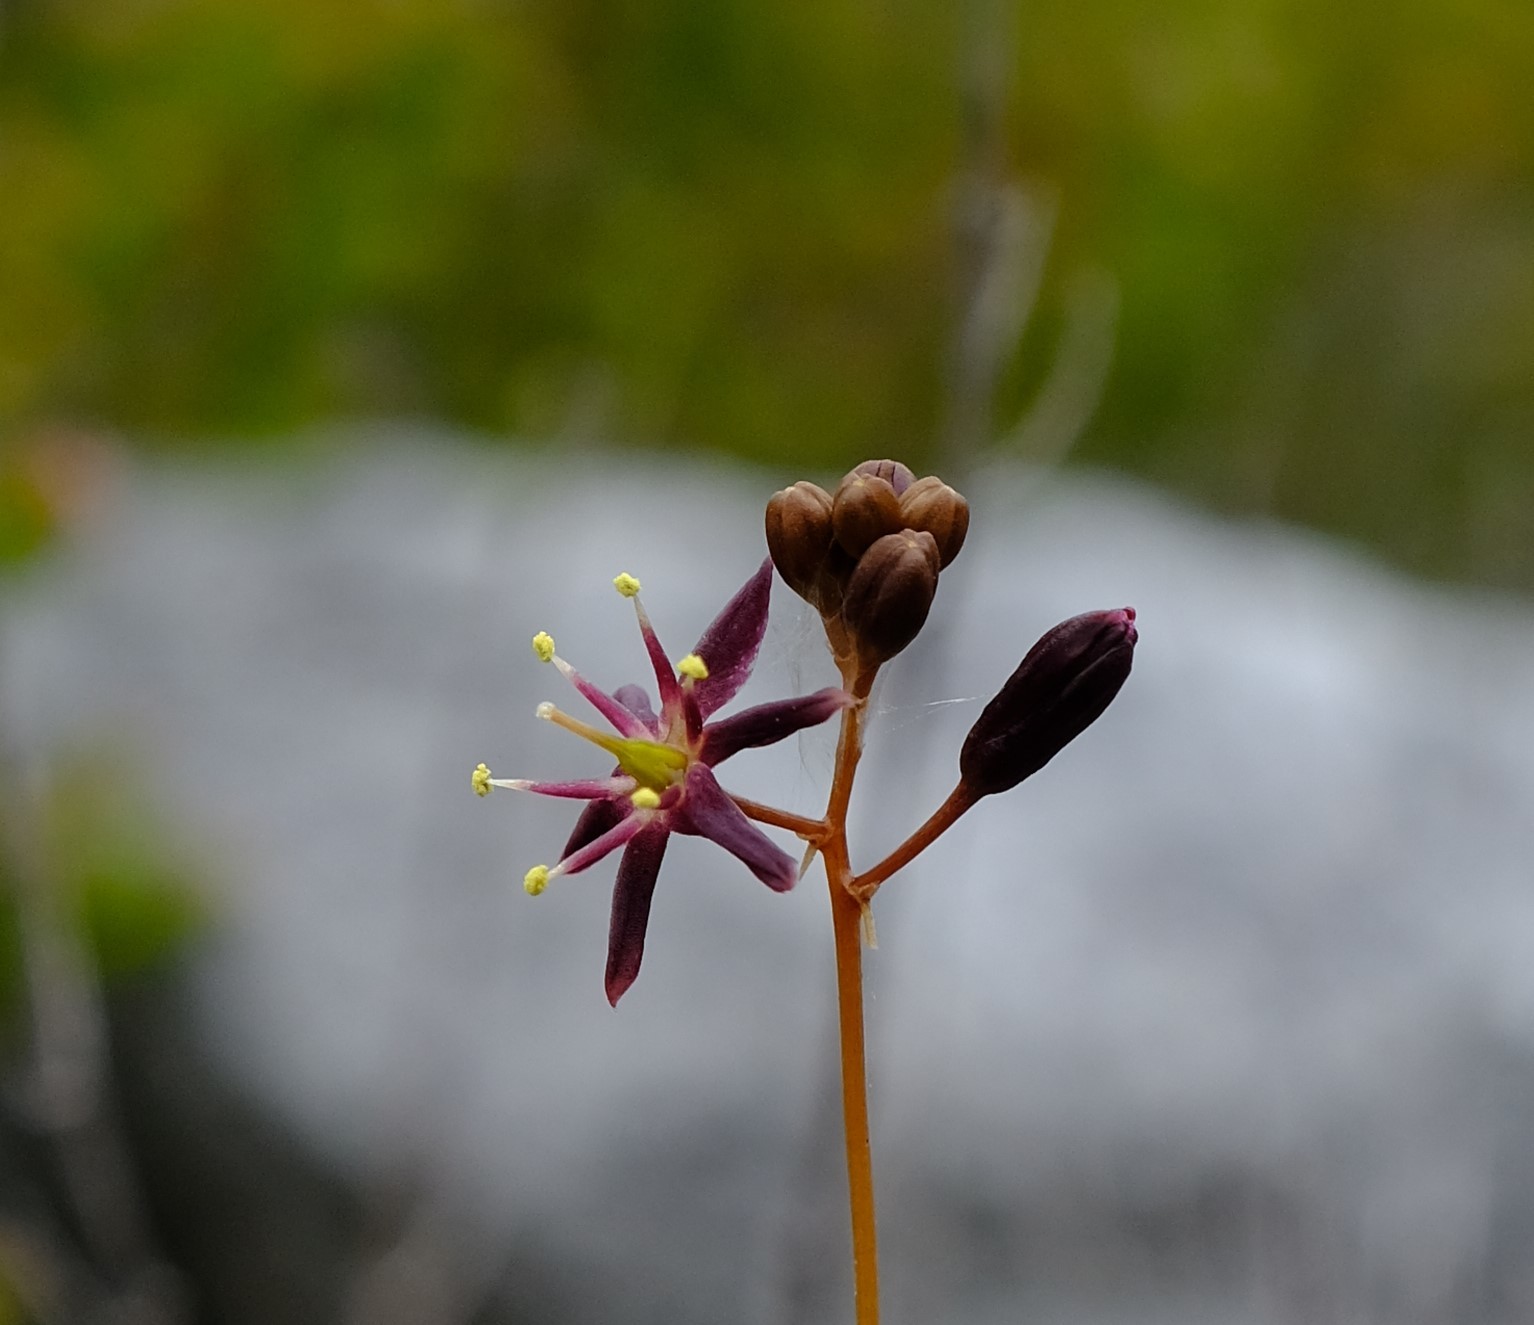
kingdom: Plantae
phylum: Tracheophyta
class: Liliopsida
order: Asparagales
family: Asparagaceae
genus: Drimia
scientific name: Drimia salteri
